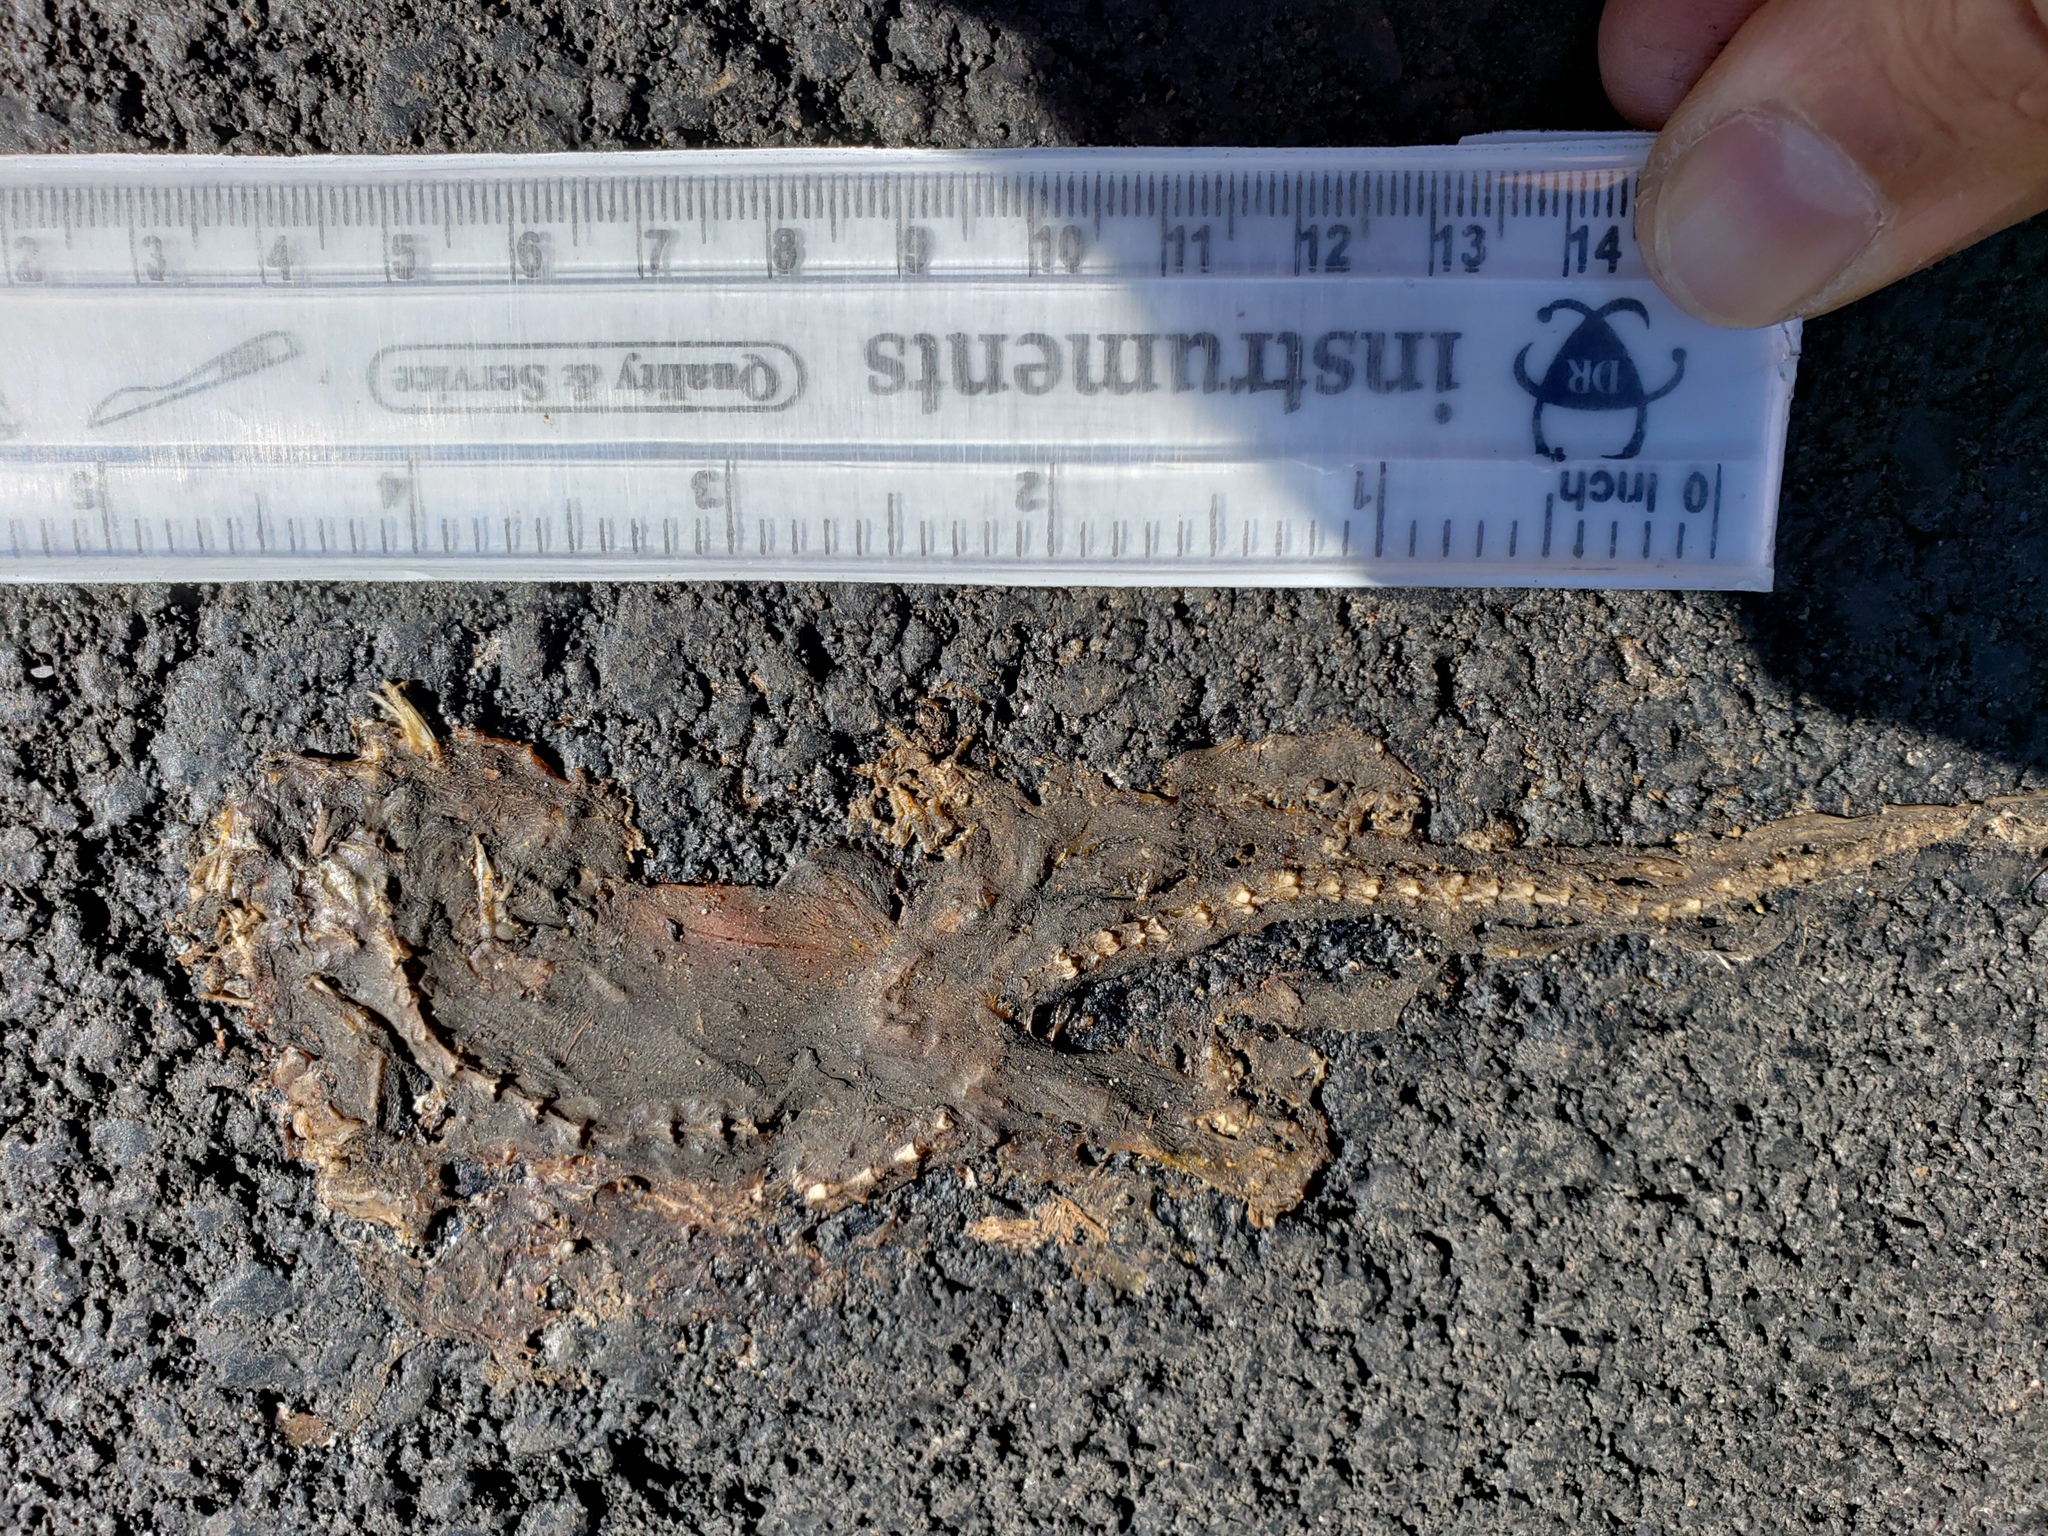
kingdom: Animalia
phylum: Chordata
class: Amphibia
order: Caudata
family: Salamandridae
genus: Taricha
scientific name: Taricha
